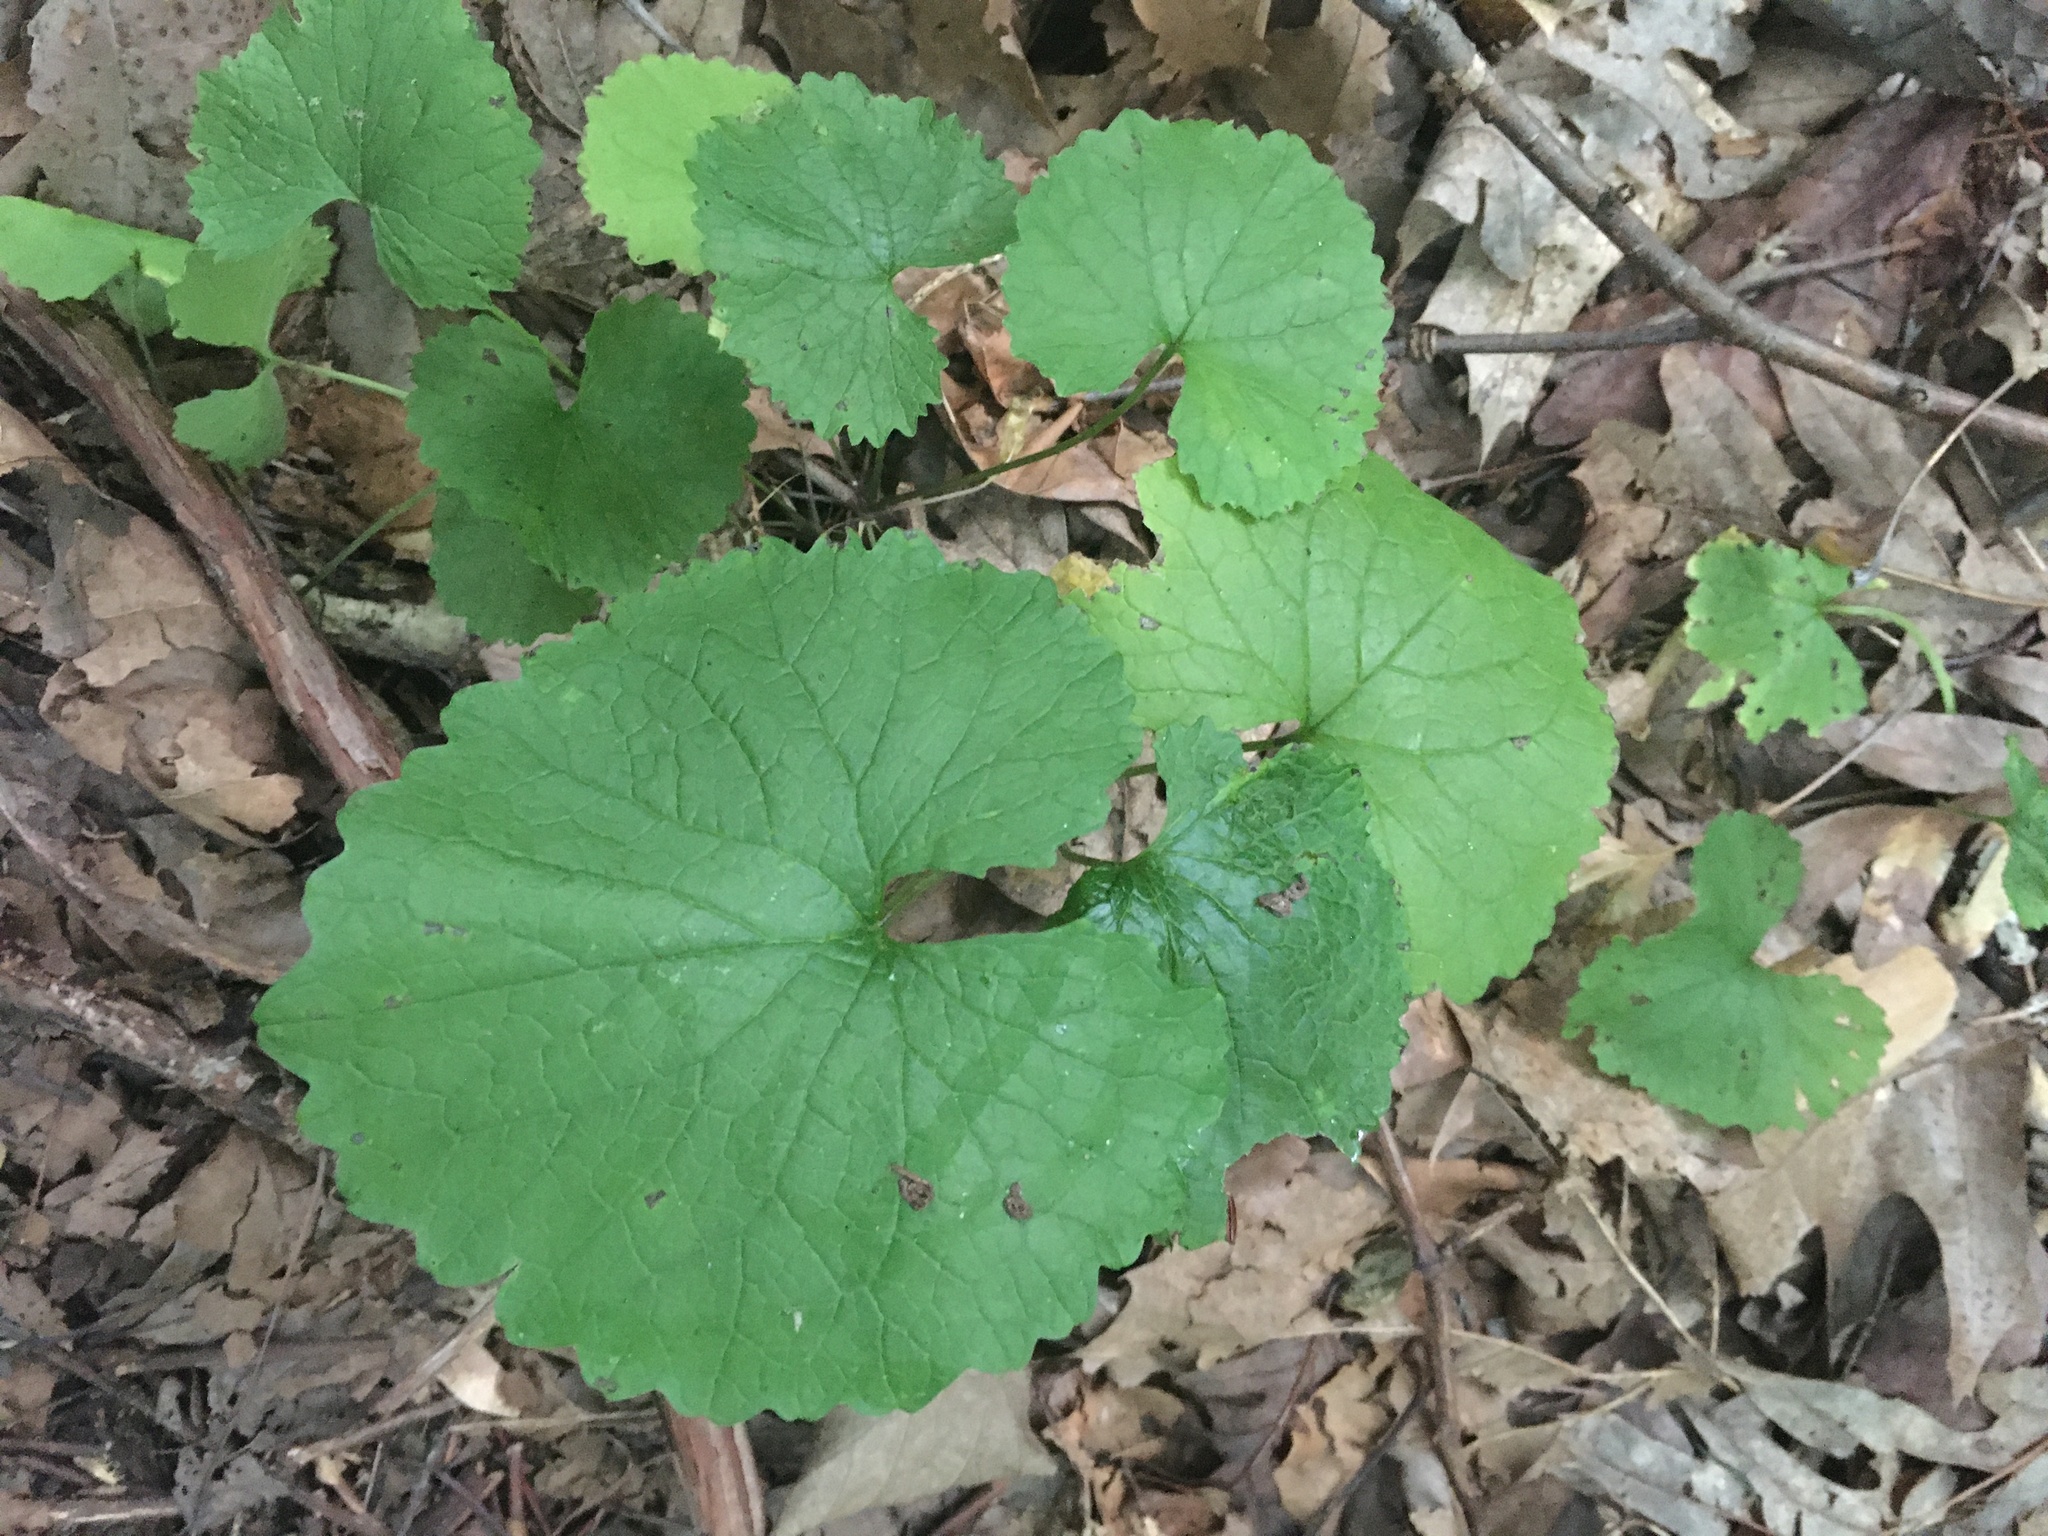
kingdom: Plantae
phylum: Tracheophyta
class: Magnoliopsida
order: Brassicales
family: Brassicaceae
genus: Alliaria
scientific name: Alliaria petiolata
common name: Garlic mustard
